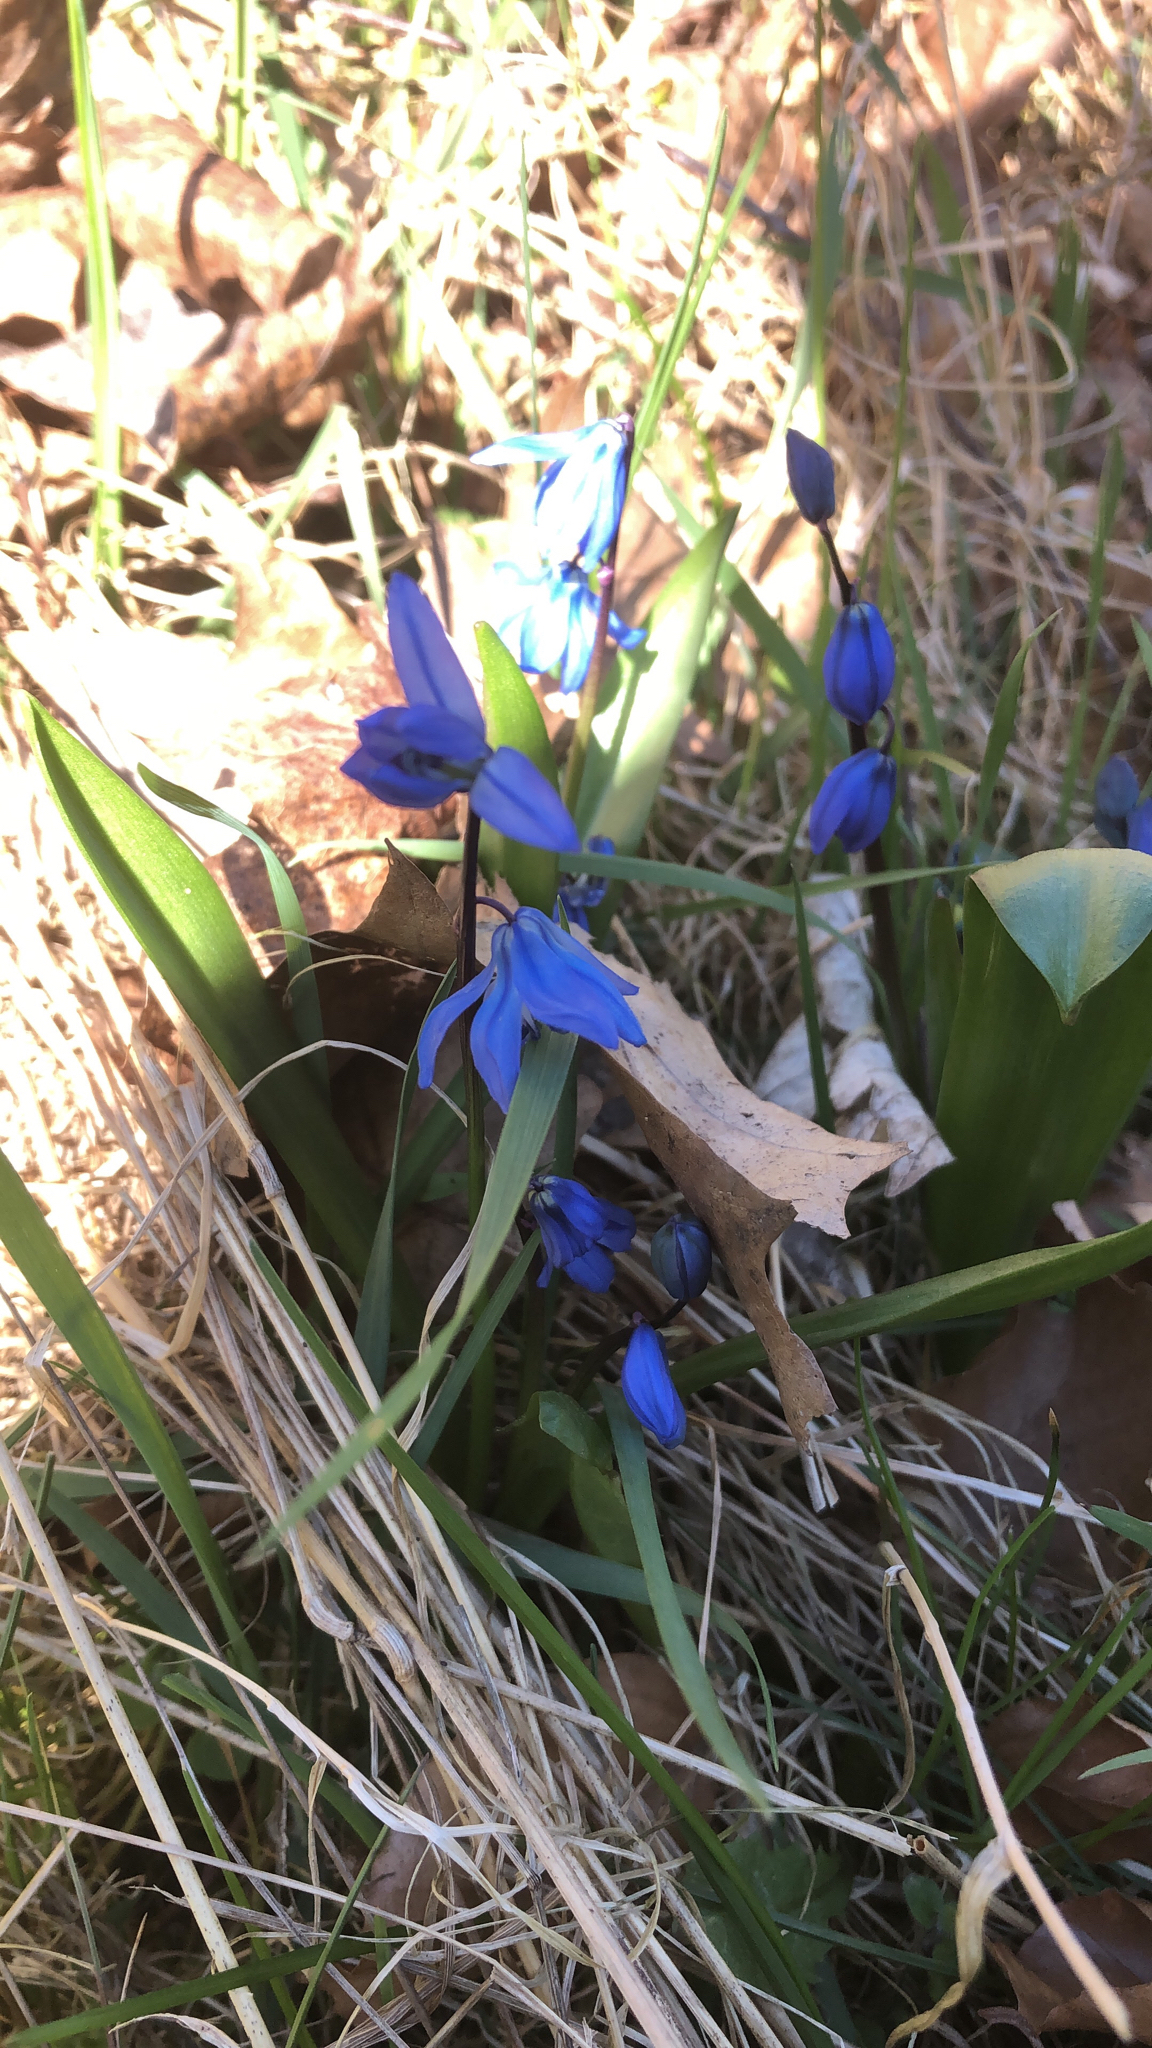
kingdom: Plantae
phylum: Tracheophyta
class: Liliopsida
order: Asparagales
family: Asparagaceae
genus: Scilla
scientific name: Scilla siberica
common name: Siberian squill
